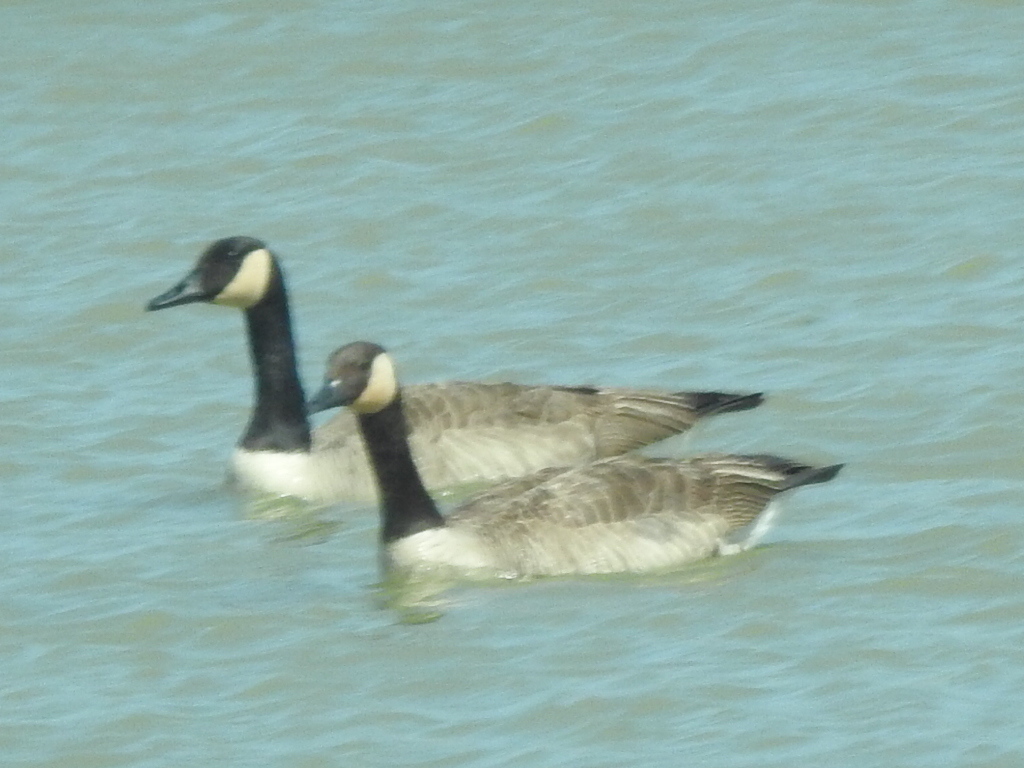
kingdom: Animalia
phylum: Chordata
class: Aves
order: Anseriformes
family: Anatidae
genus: Branta
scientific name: Branta canadensis
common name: Canada goose
